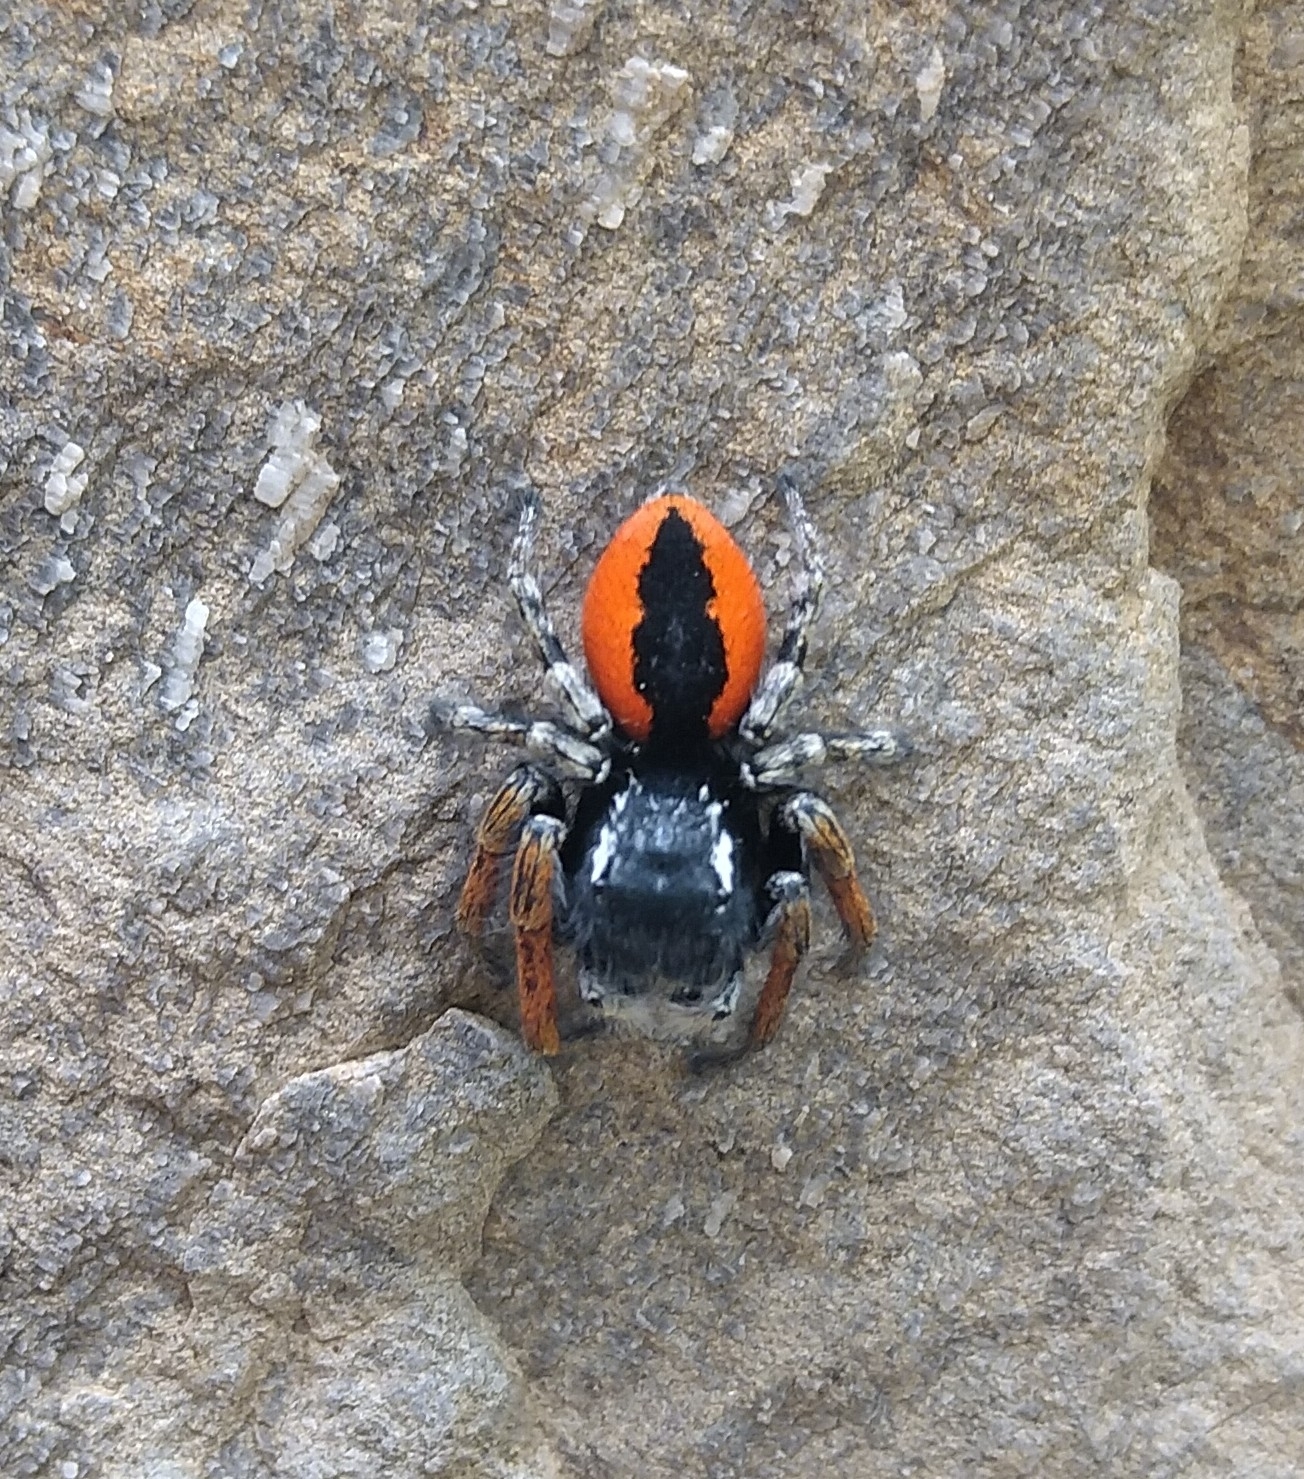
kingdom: Animalia
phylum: Arthropoda
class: Arachnida
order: Araneae
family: Salticidae
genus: Philaeus
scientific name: Philaeus chrysops
